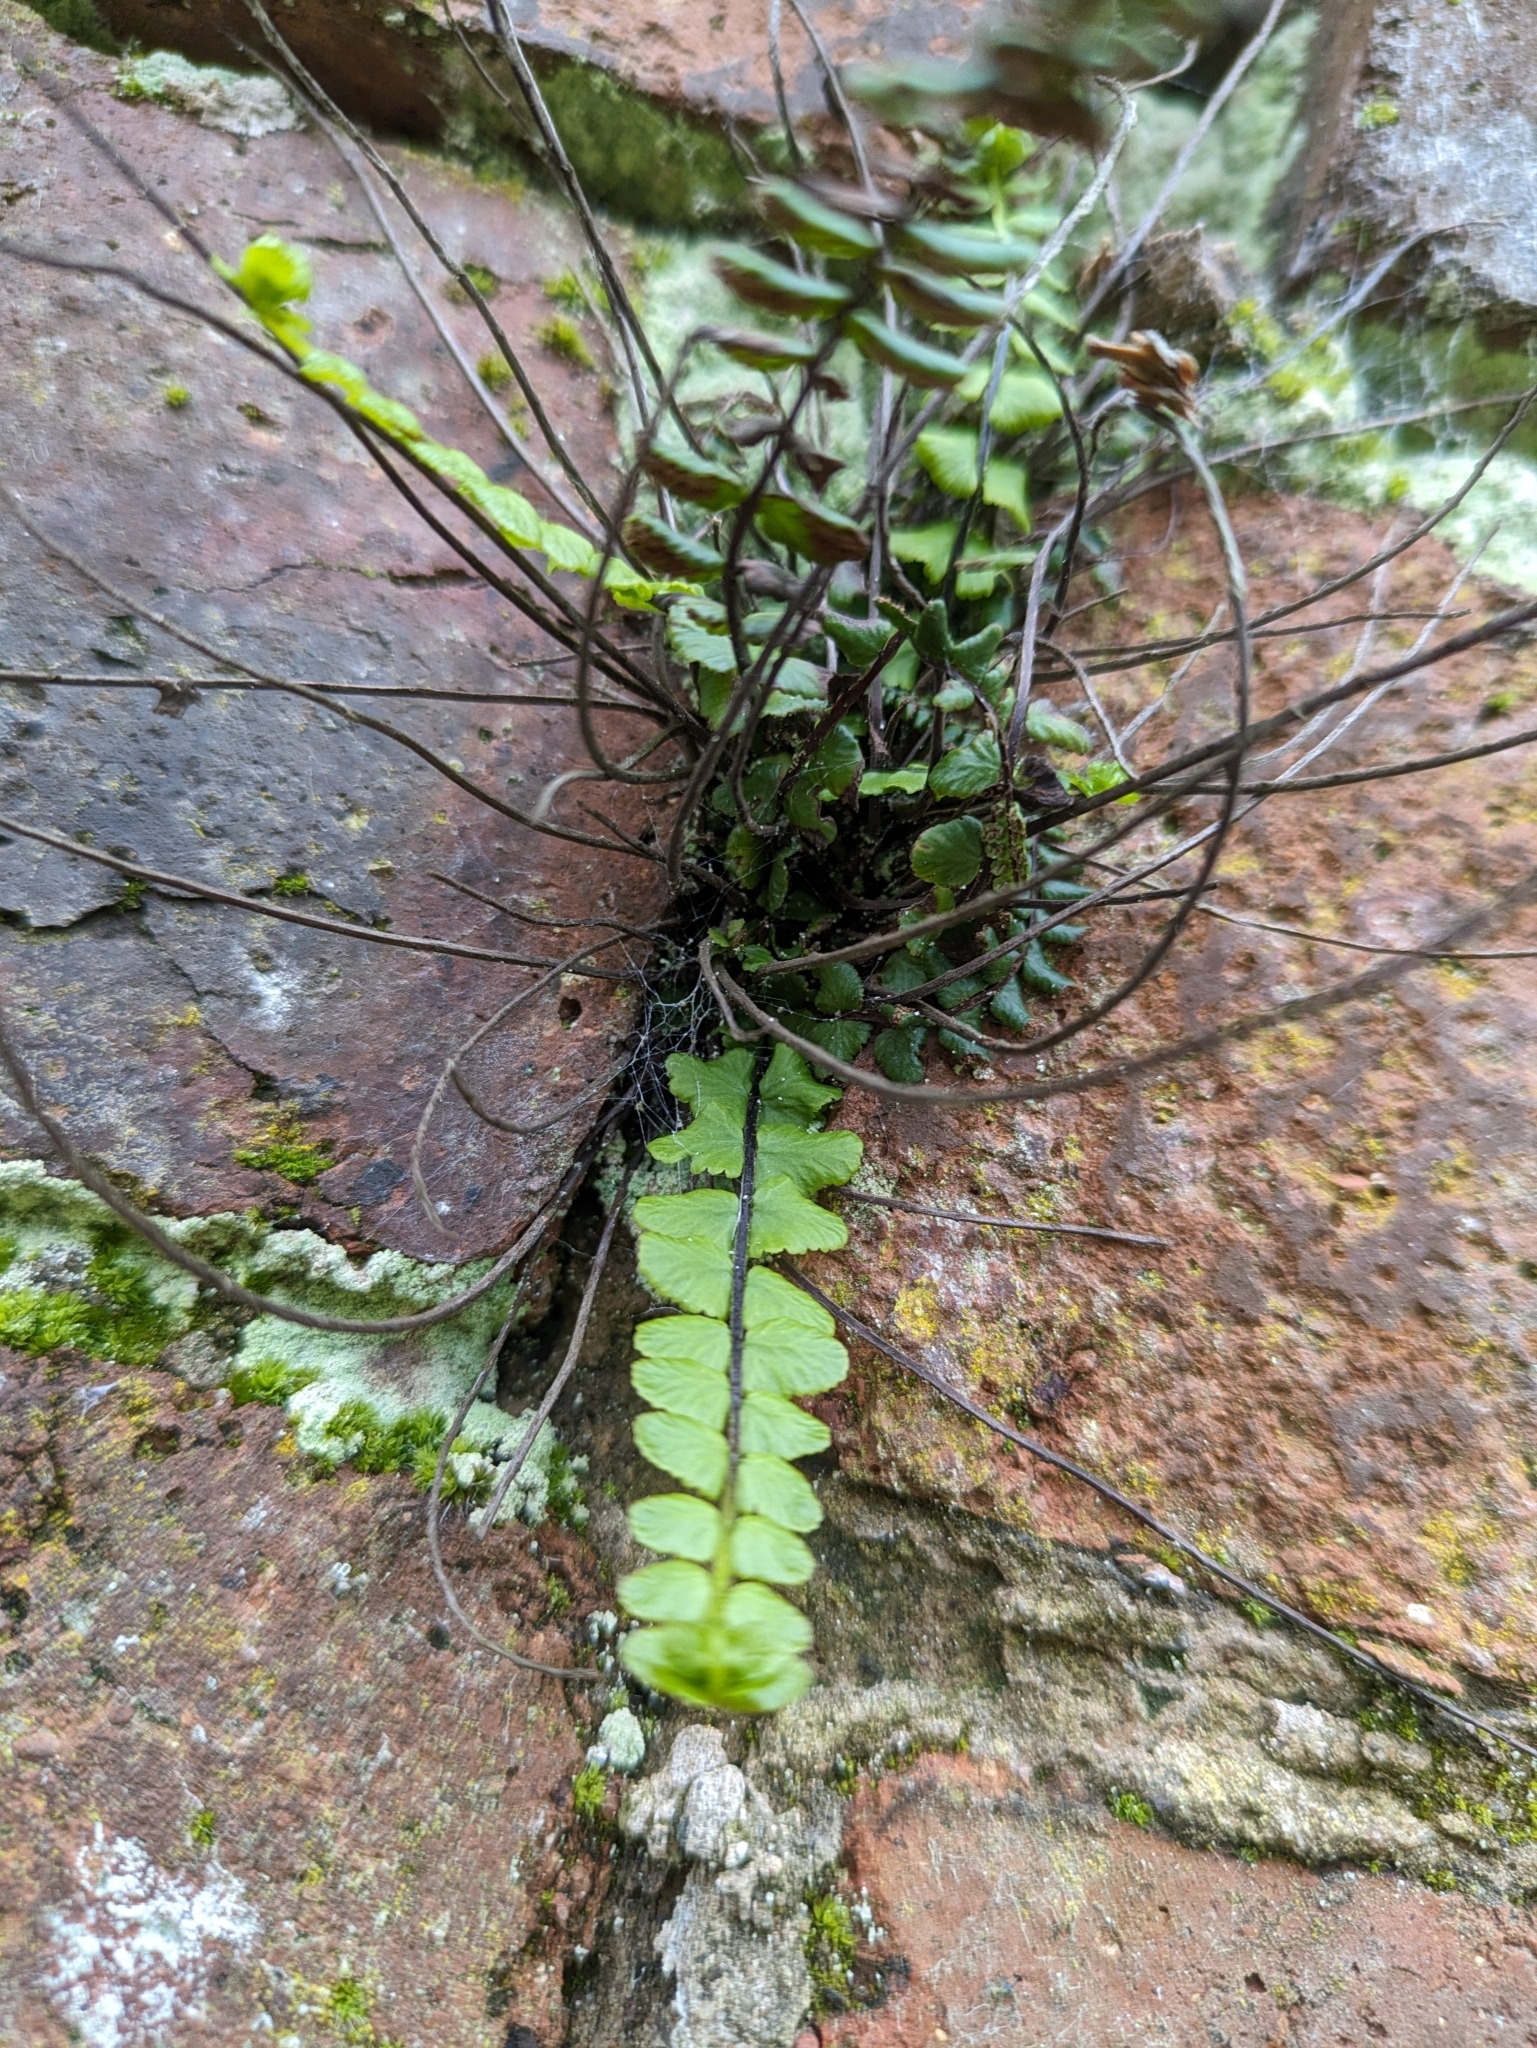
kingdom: Plantae
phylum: Tracheophyta
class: Polypodiopsida
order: Polypodiales
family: Aspleniaceae
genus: Asplenium
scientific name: Asplenium trichomanes
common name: Maidenhair spleenwort
